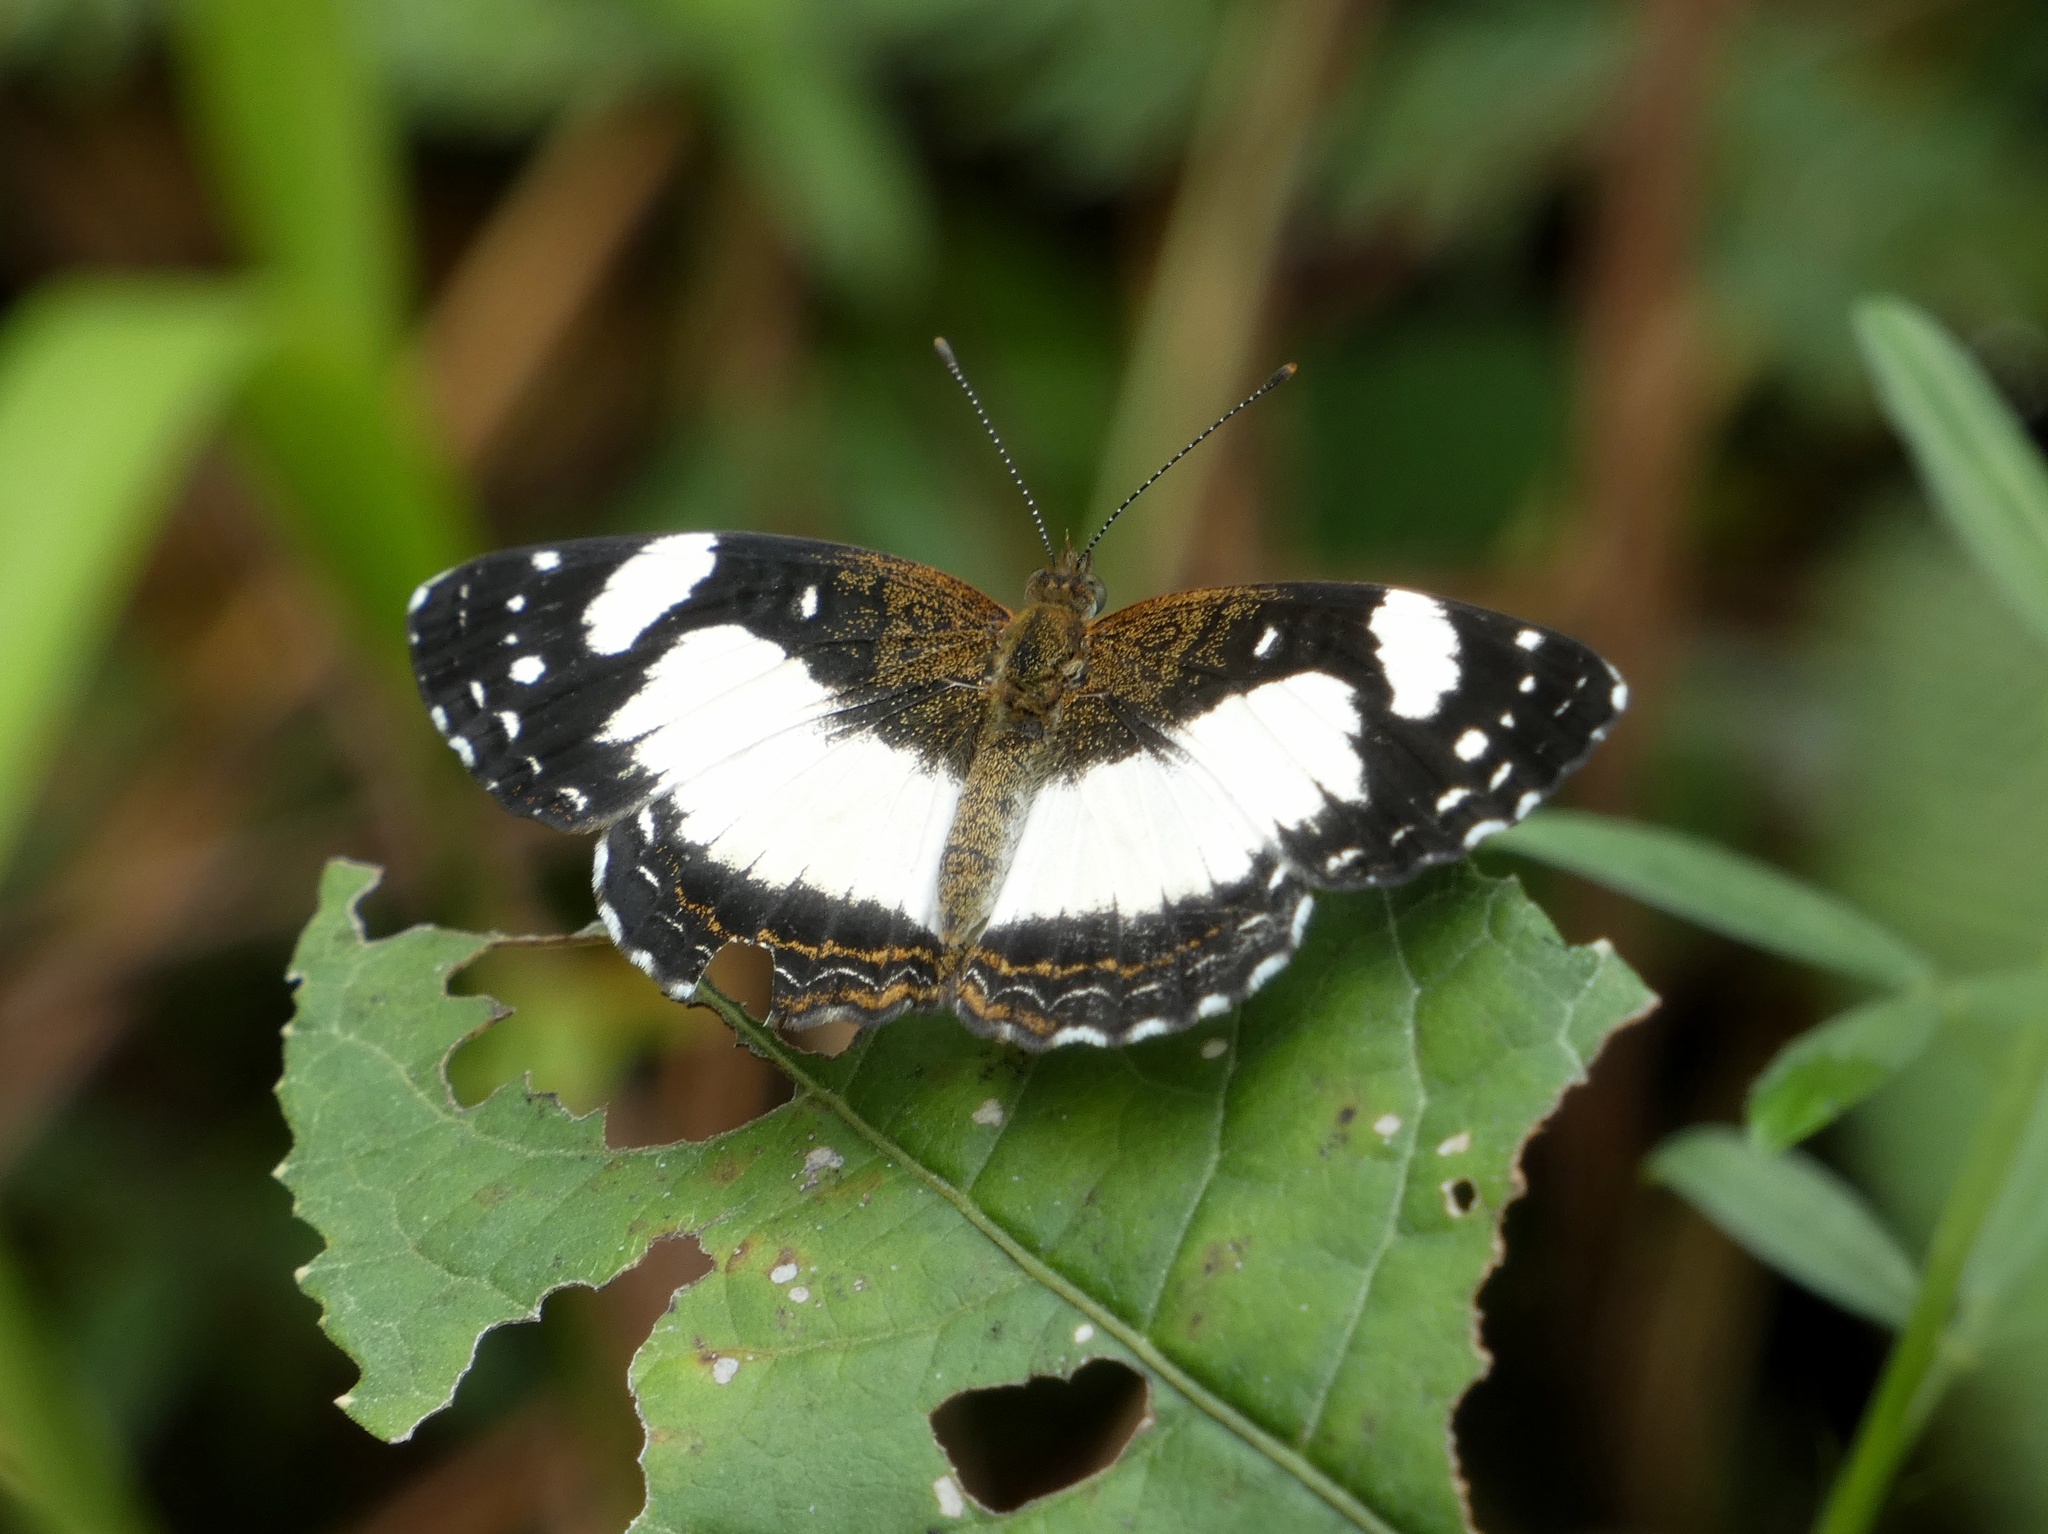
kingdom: Animalia
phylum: Arthropoda
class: Insecta
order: Lepidoptera
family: Nymphalidae
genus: Janatella
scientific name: Janatella leucodesma
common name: Whitened crescent
